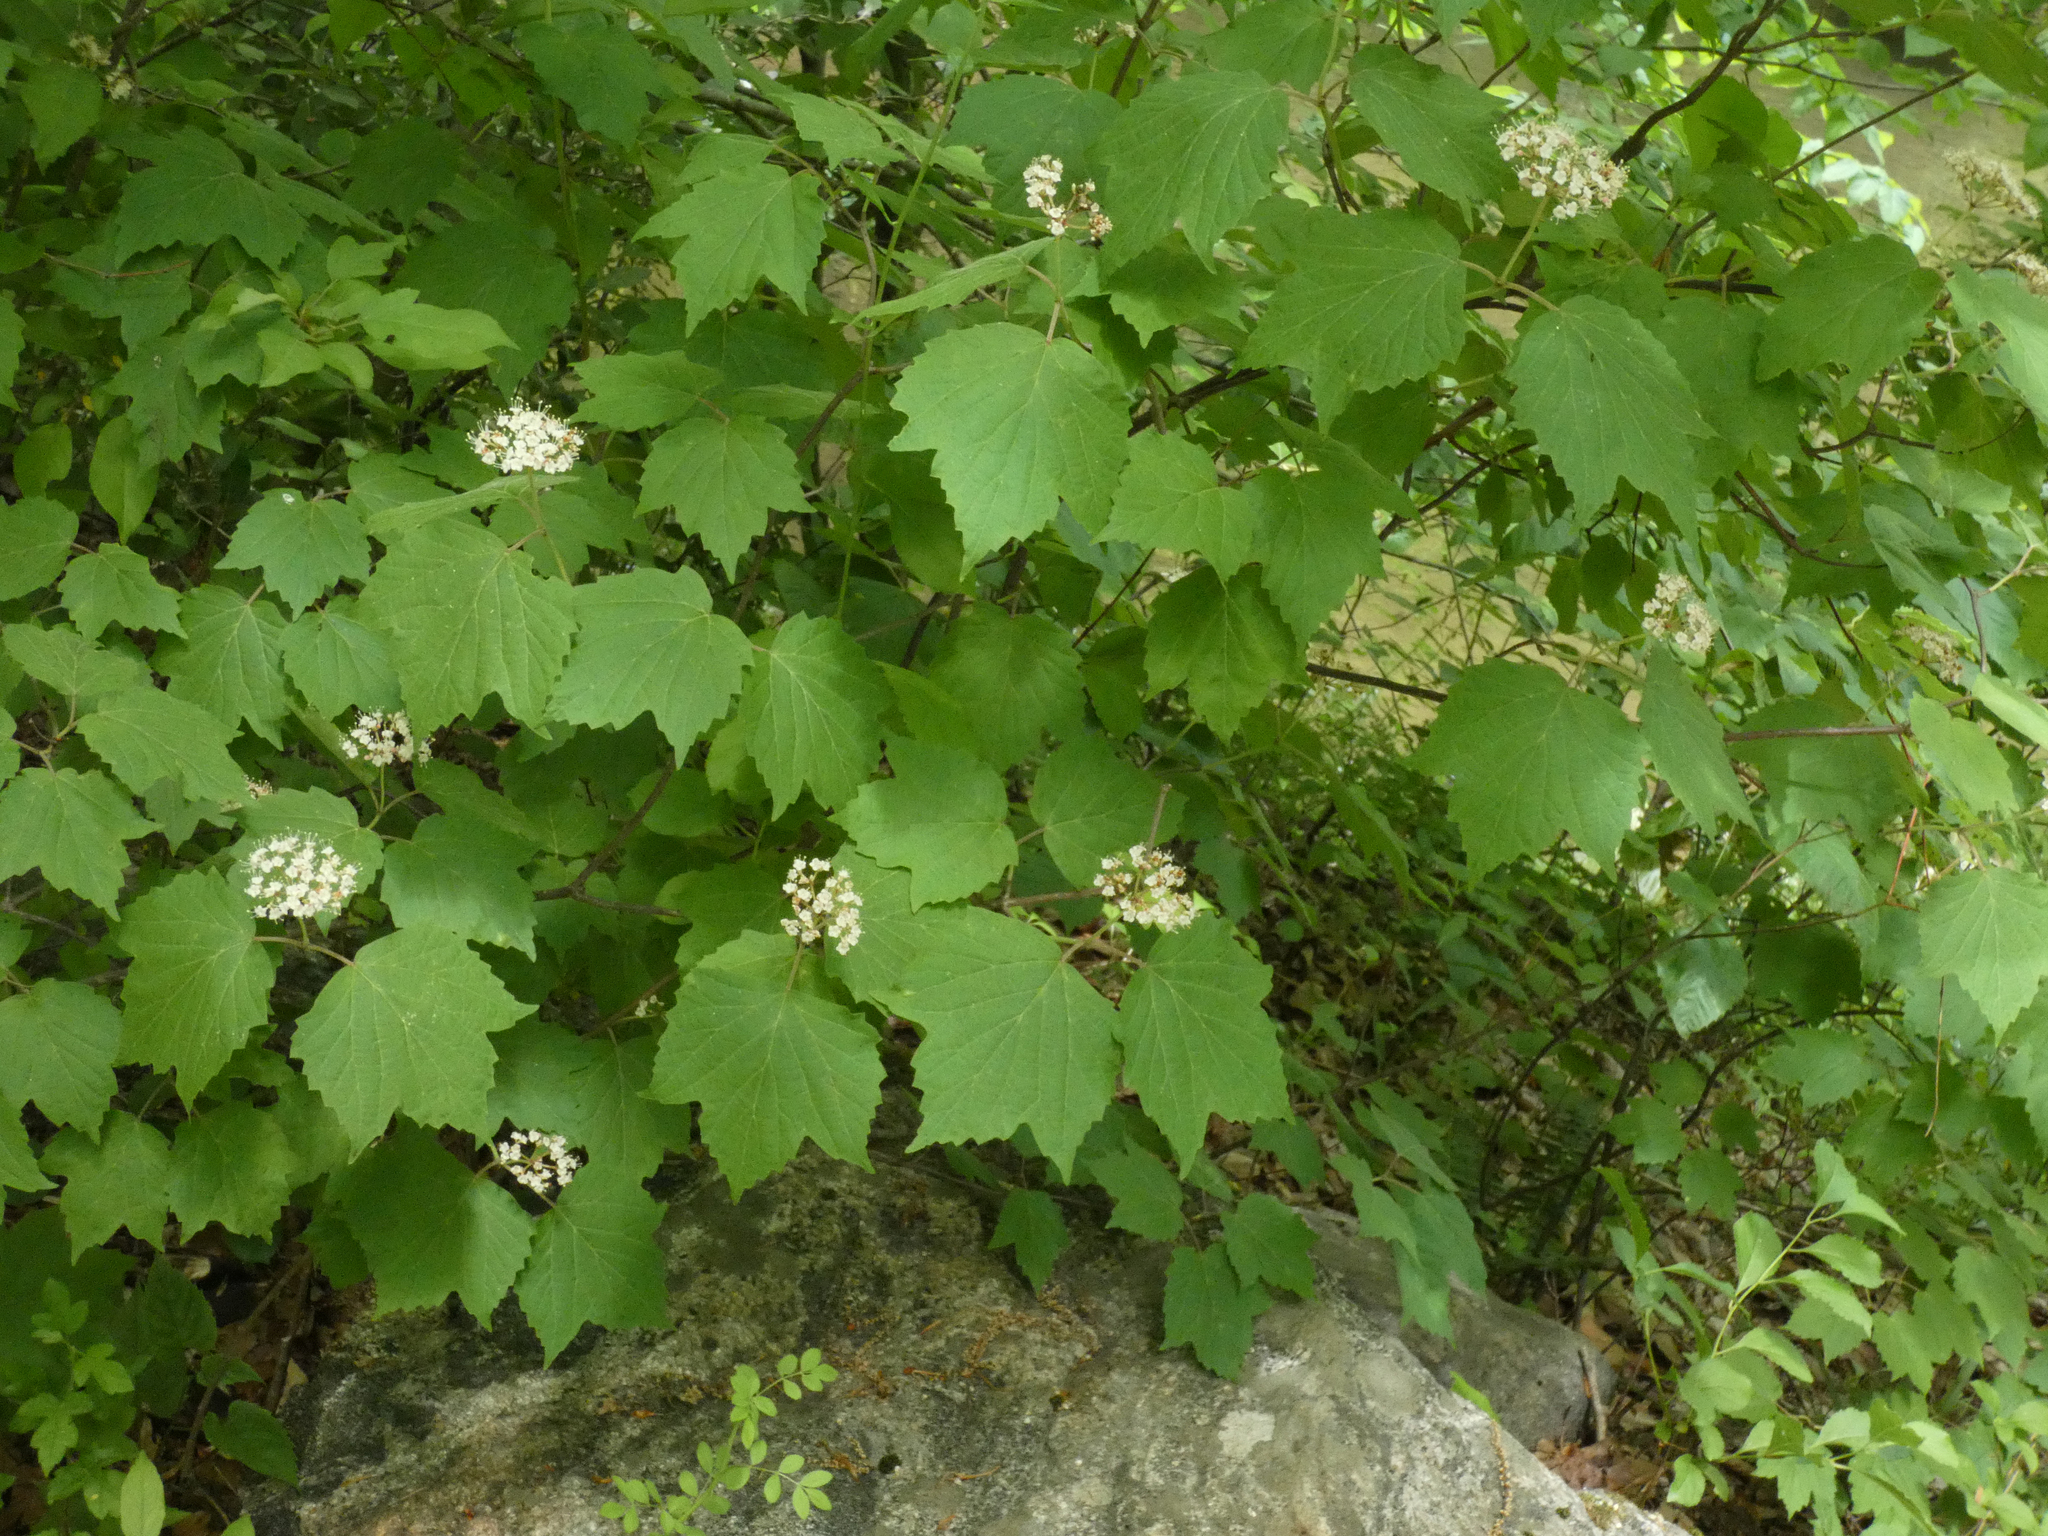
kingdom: Plantae
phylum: Tracheophyta
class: Magnoliopsida
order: Dipsacales
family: Viburnaceae
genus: Viburnum
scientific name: Viburnum acerifolium
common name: Dockmackie
